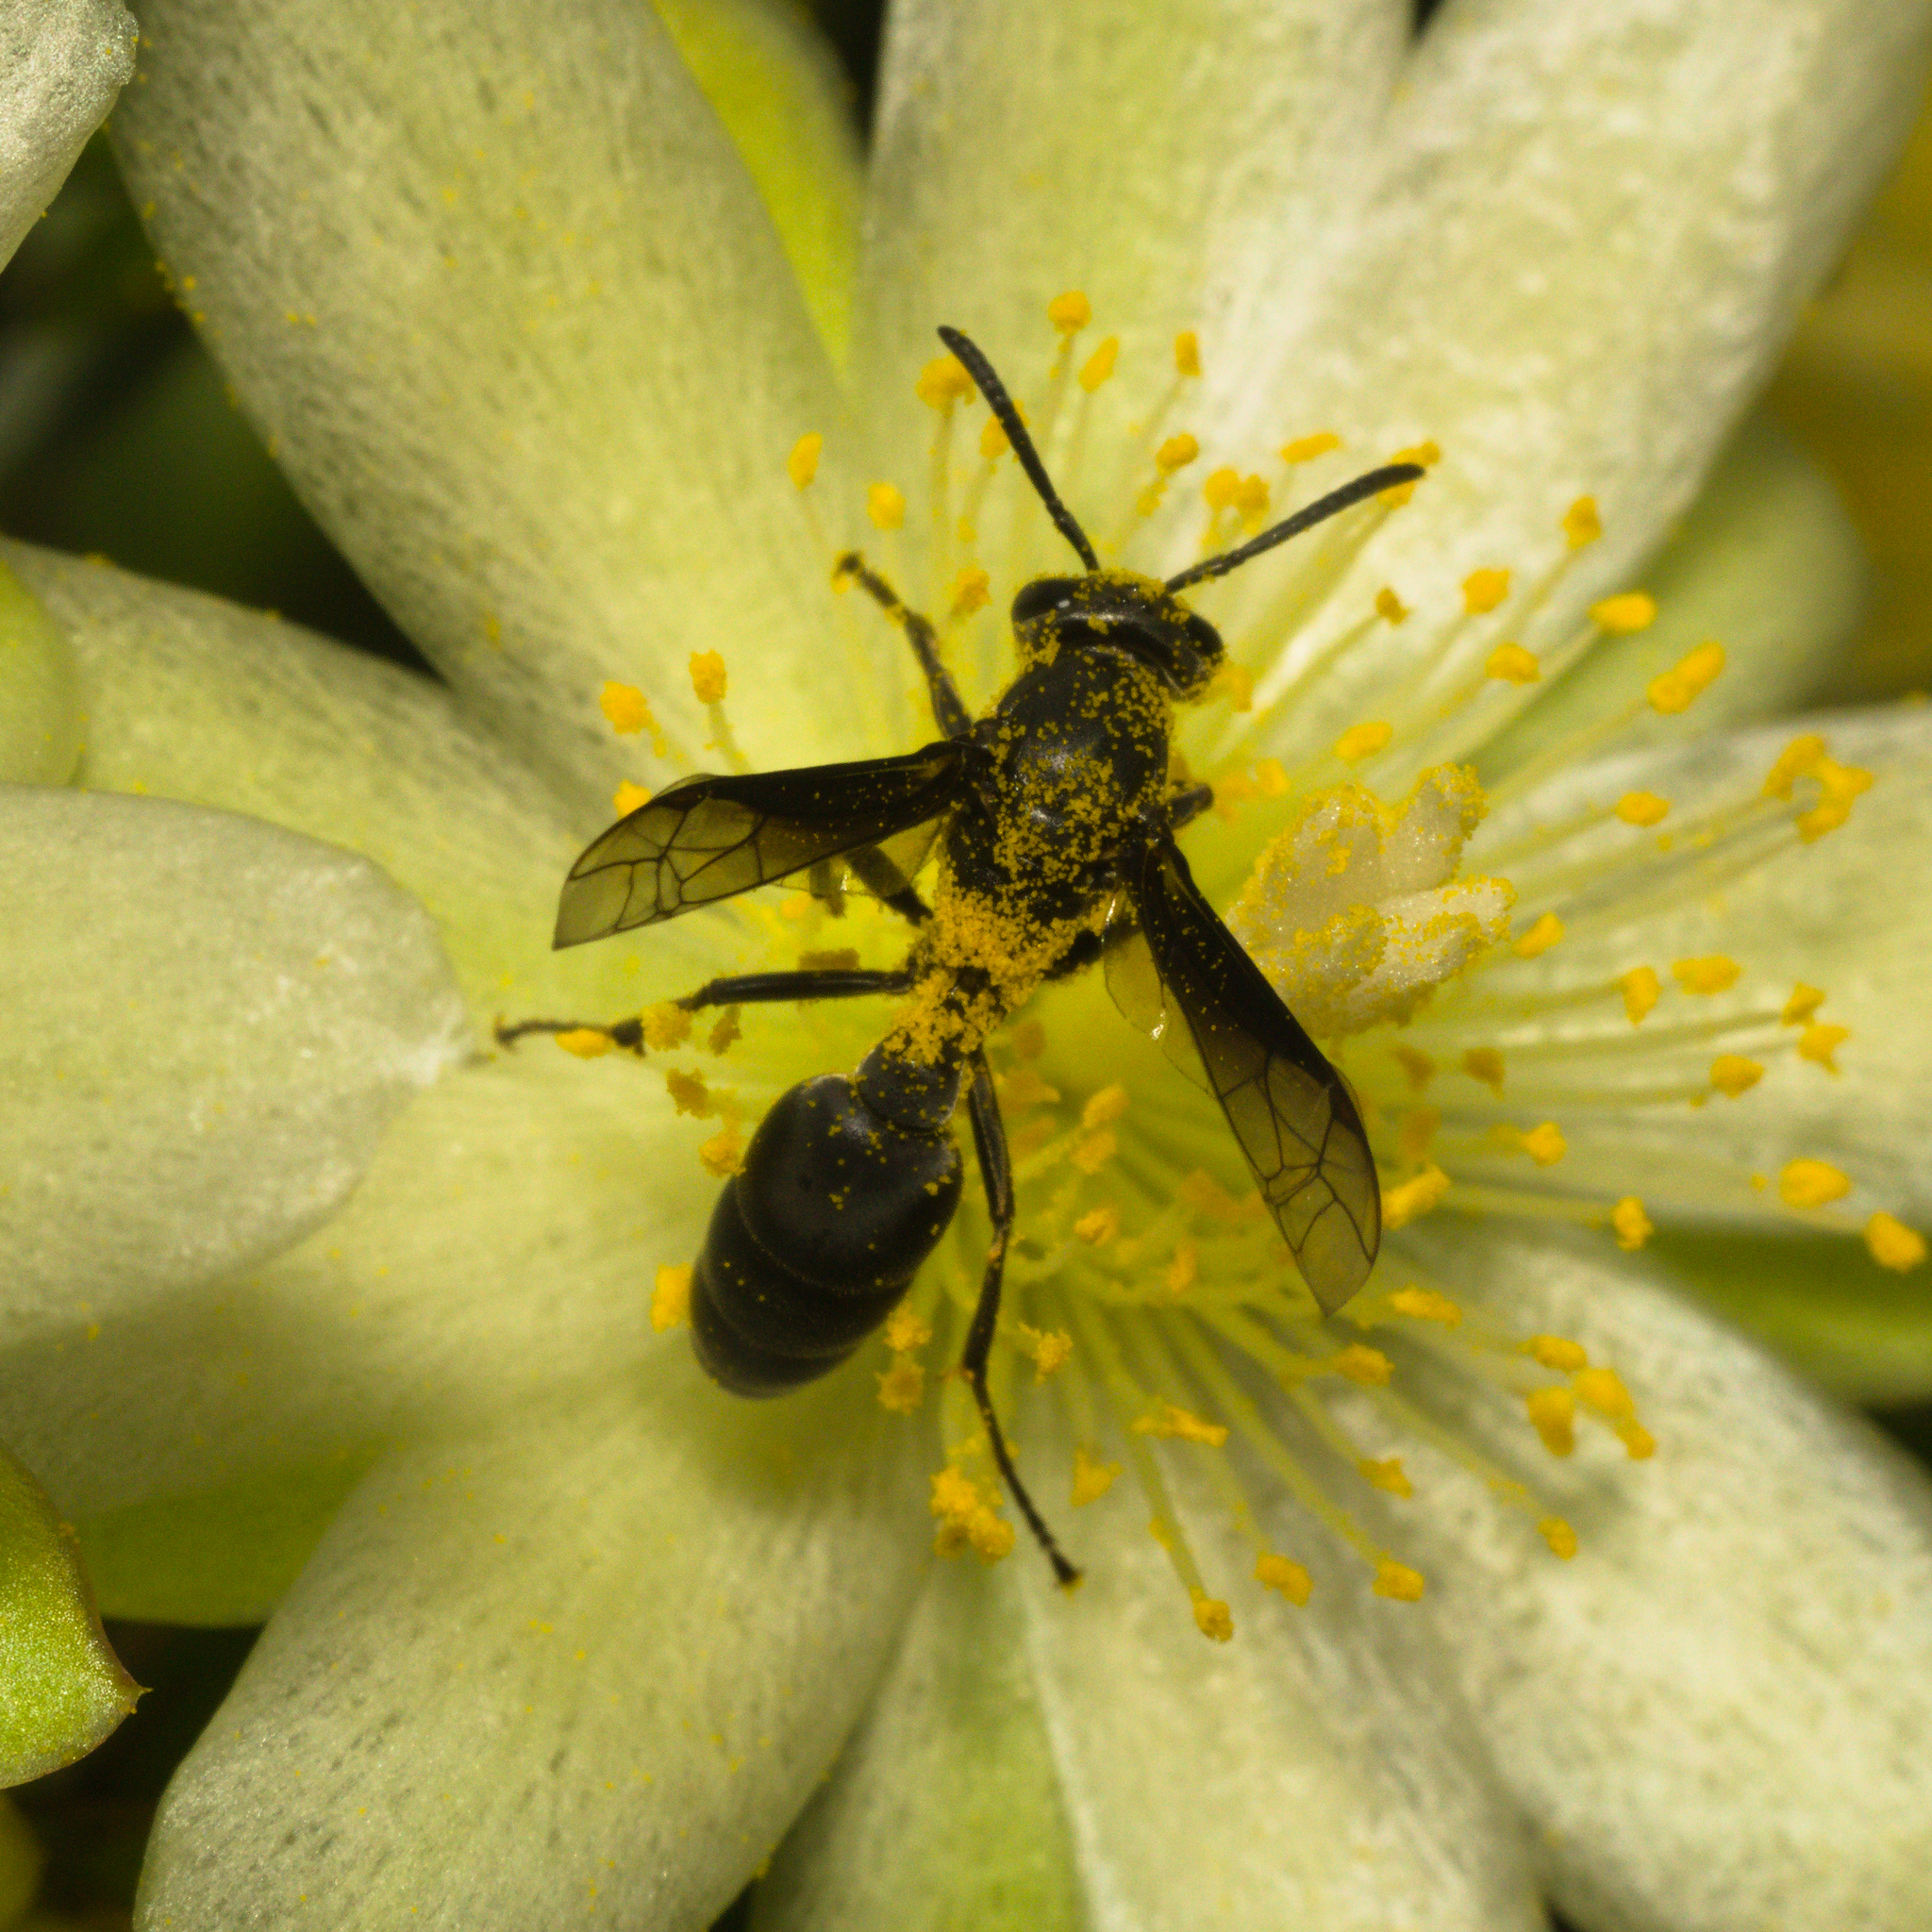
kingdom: Animalia
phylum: Arthropoda
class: Insecta
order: Hymenoptera
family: Eumenidae
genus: Polybia
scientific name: Polybia ignobilis
